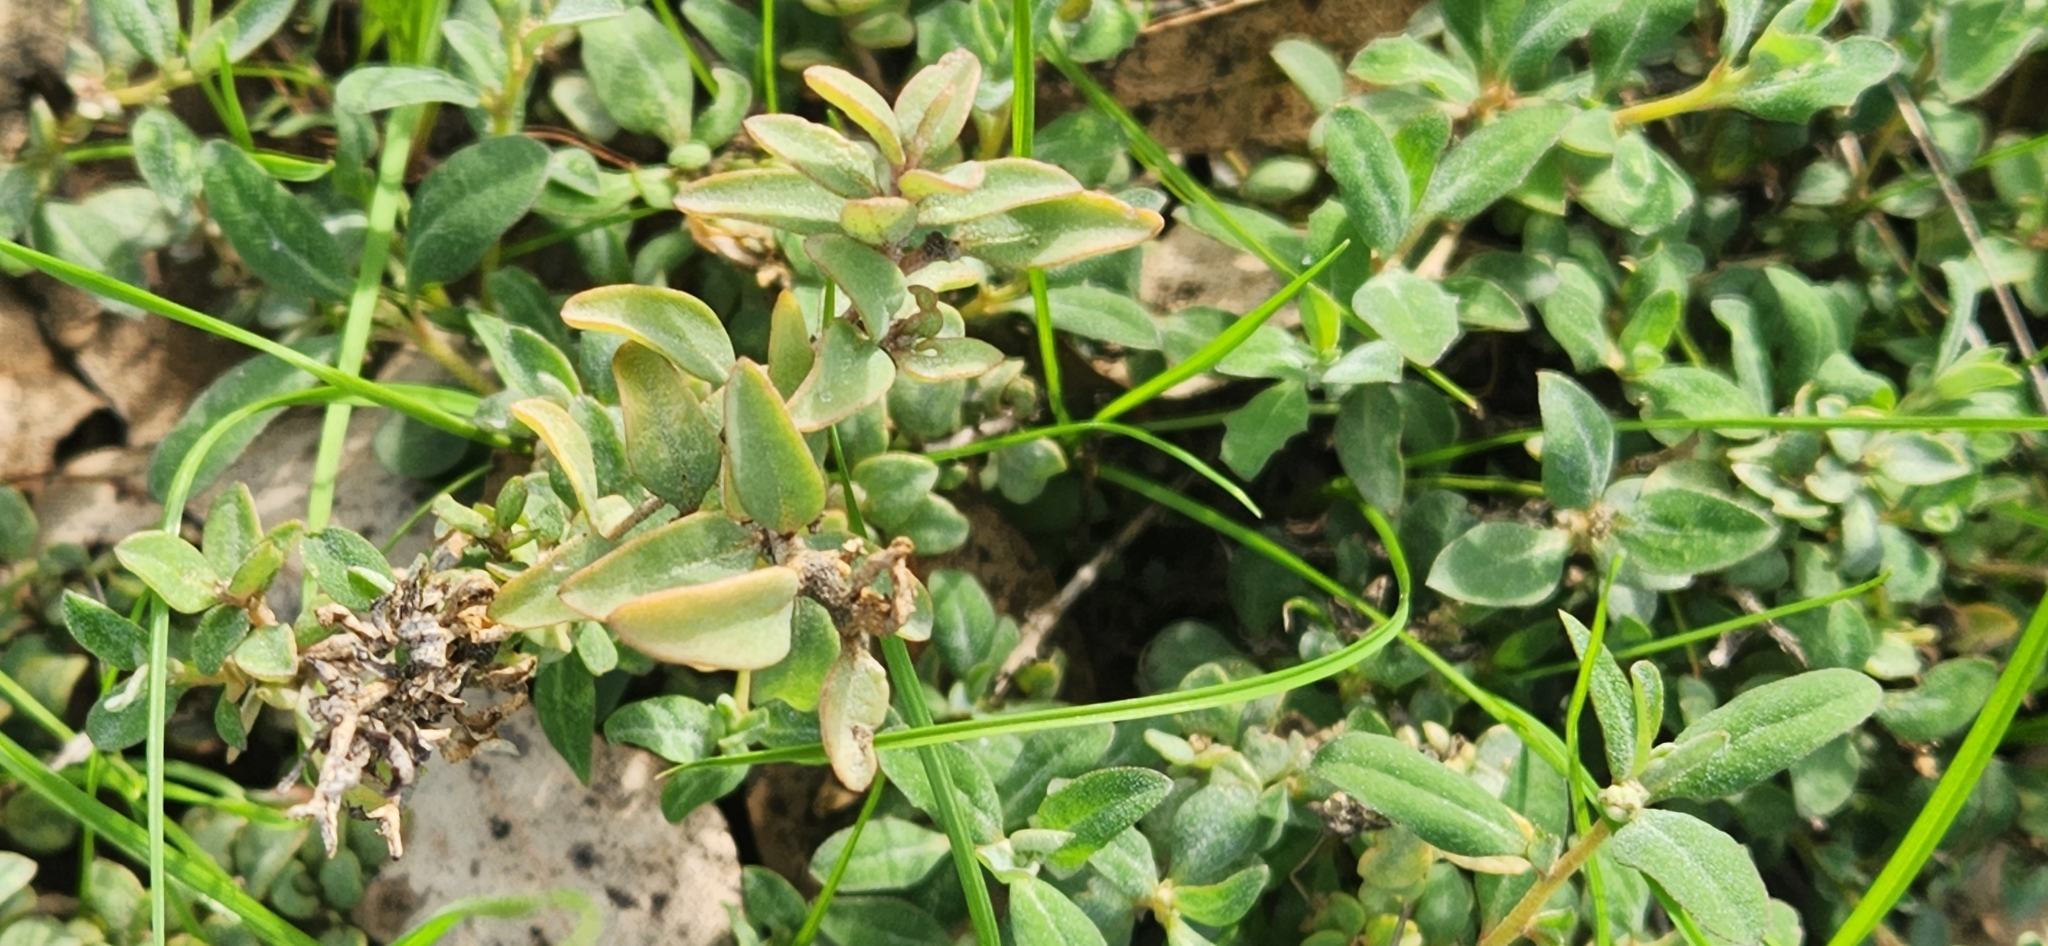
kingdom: Plantae
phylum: Tracheophyta
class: Magnoliopsida
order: Caryophyllales
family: Amaranthaceae
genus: Atriplex
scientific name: Atriplex semibaccata
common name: Australian saltbush
